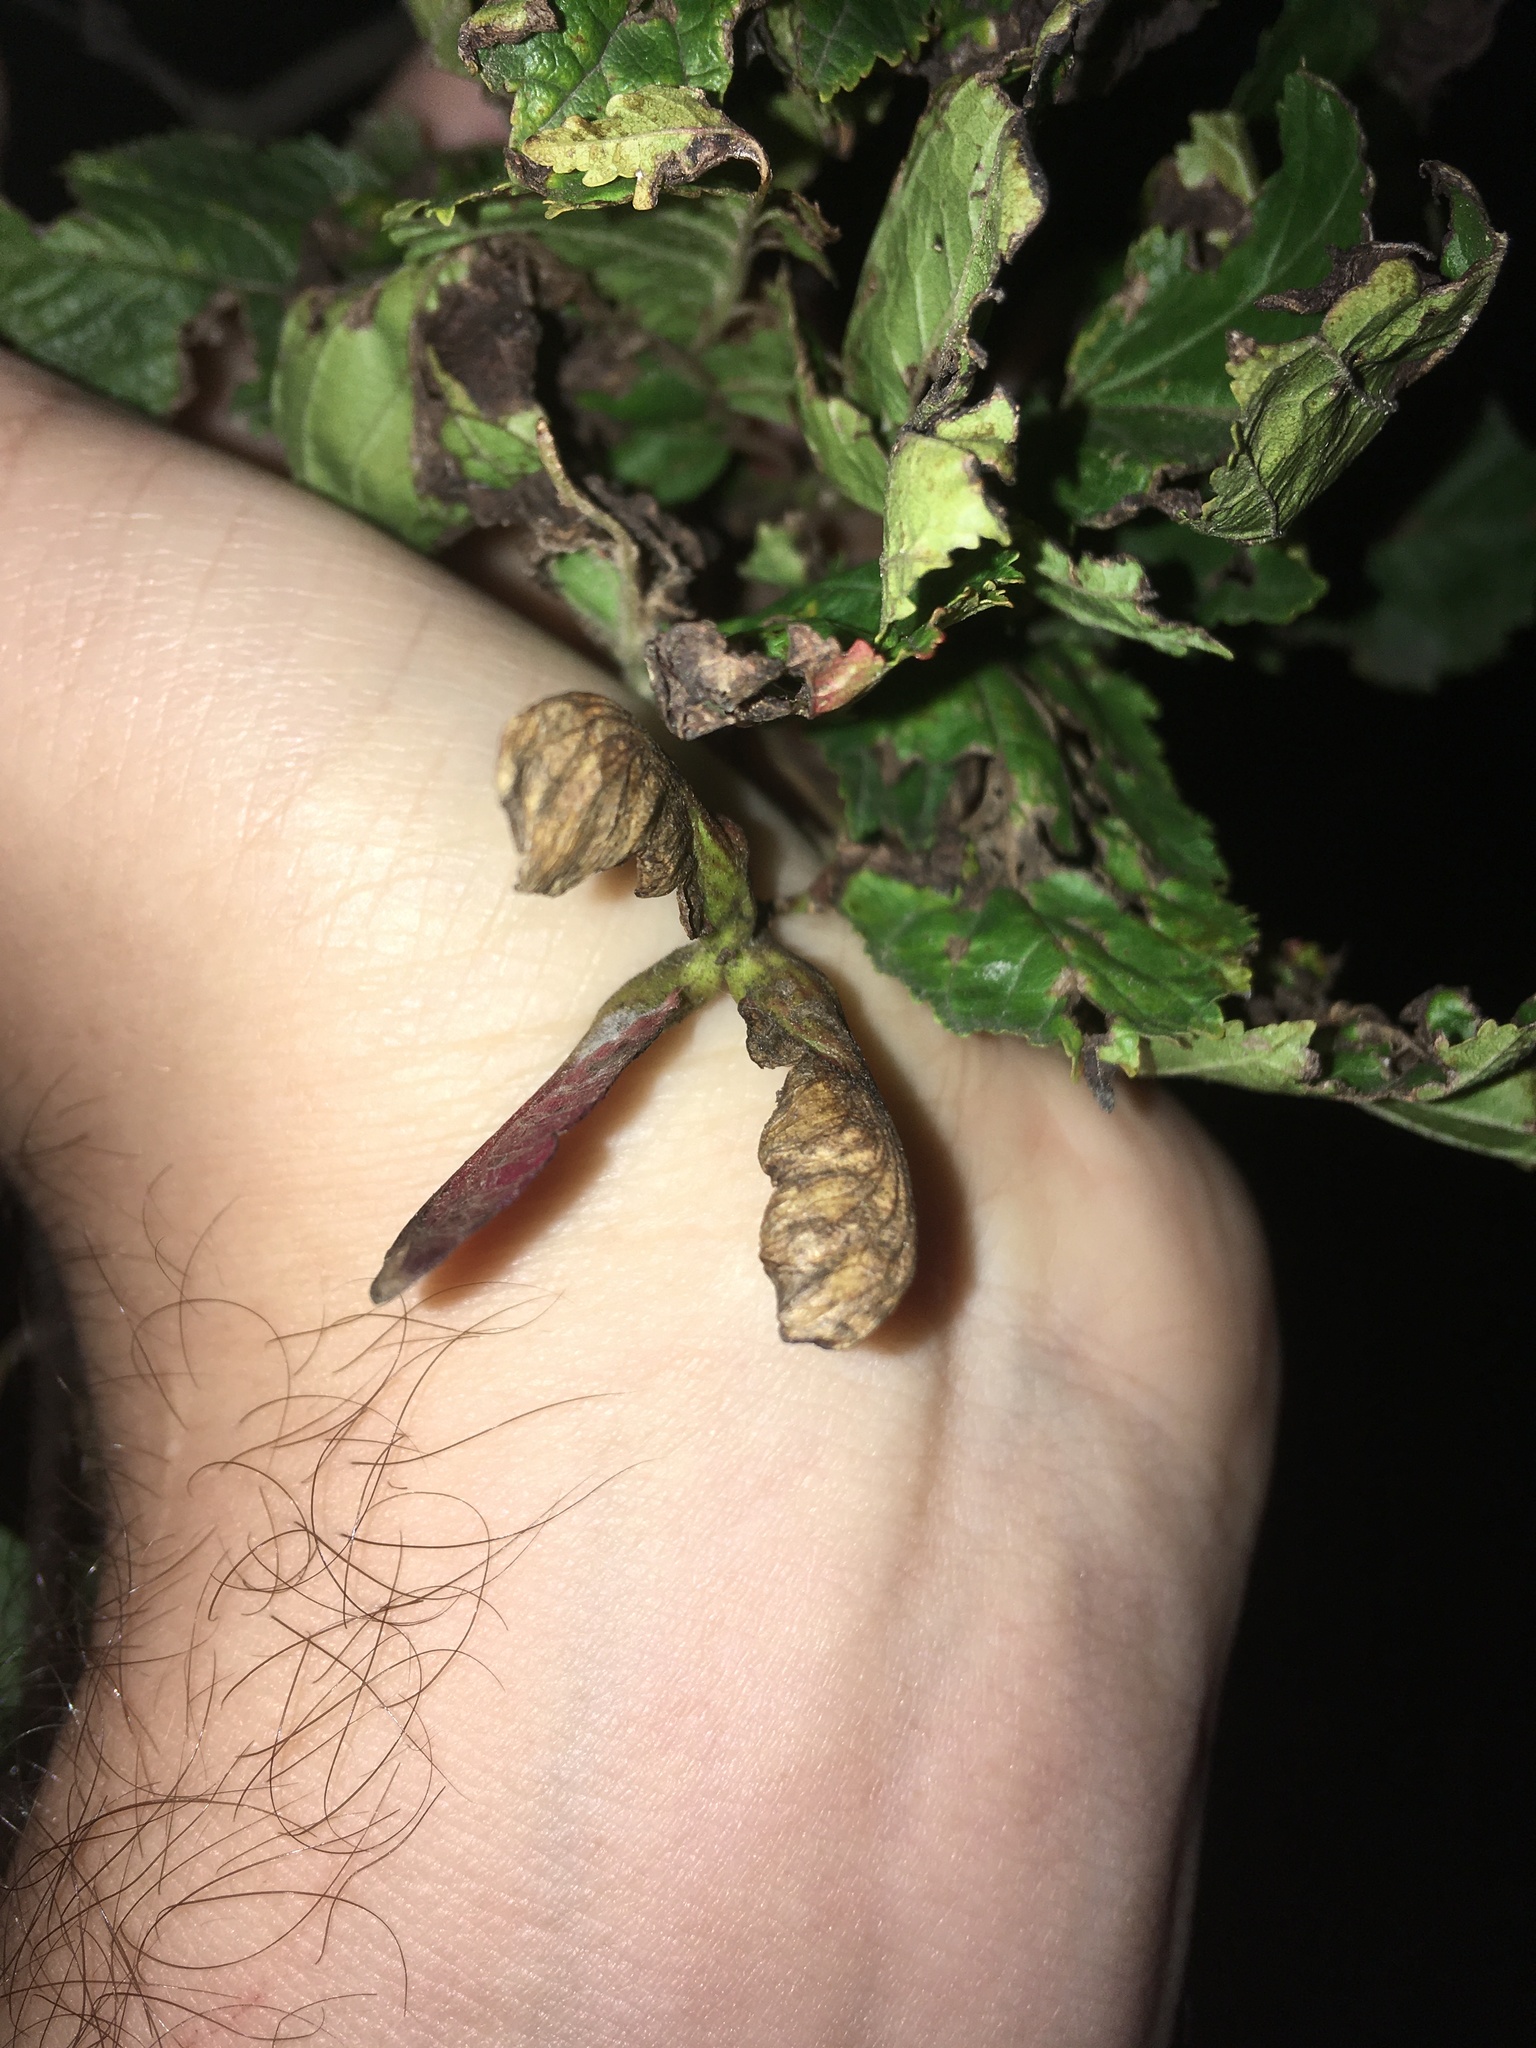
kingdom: Plantae
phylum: Tracheophyta
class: Magnoliopsida
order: Sapindales
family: Sapindaceae
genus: Acer
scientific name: Acer tataricum
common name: Tartar maple
